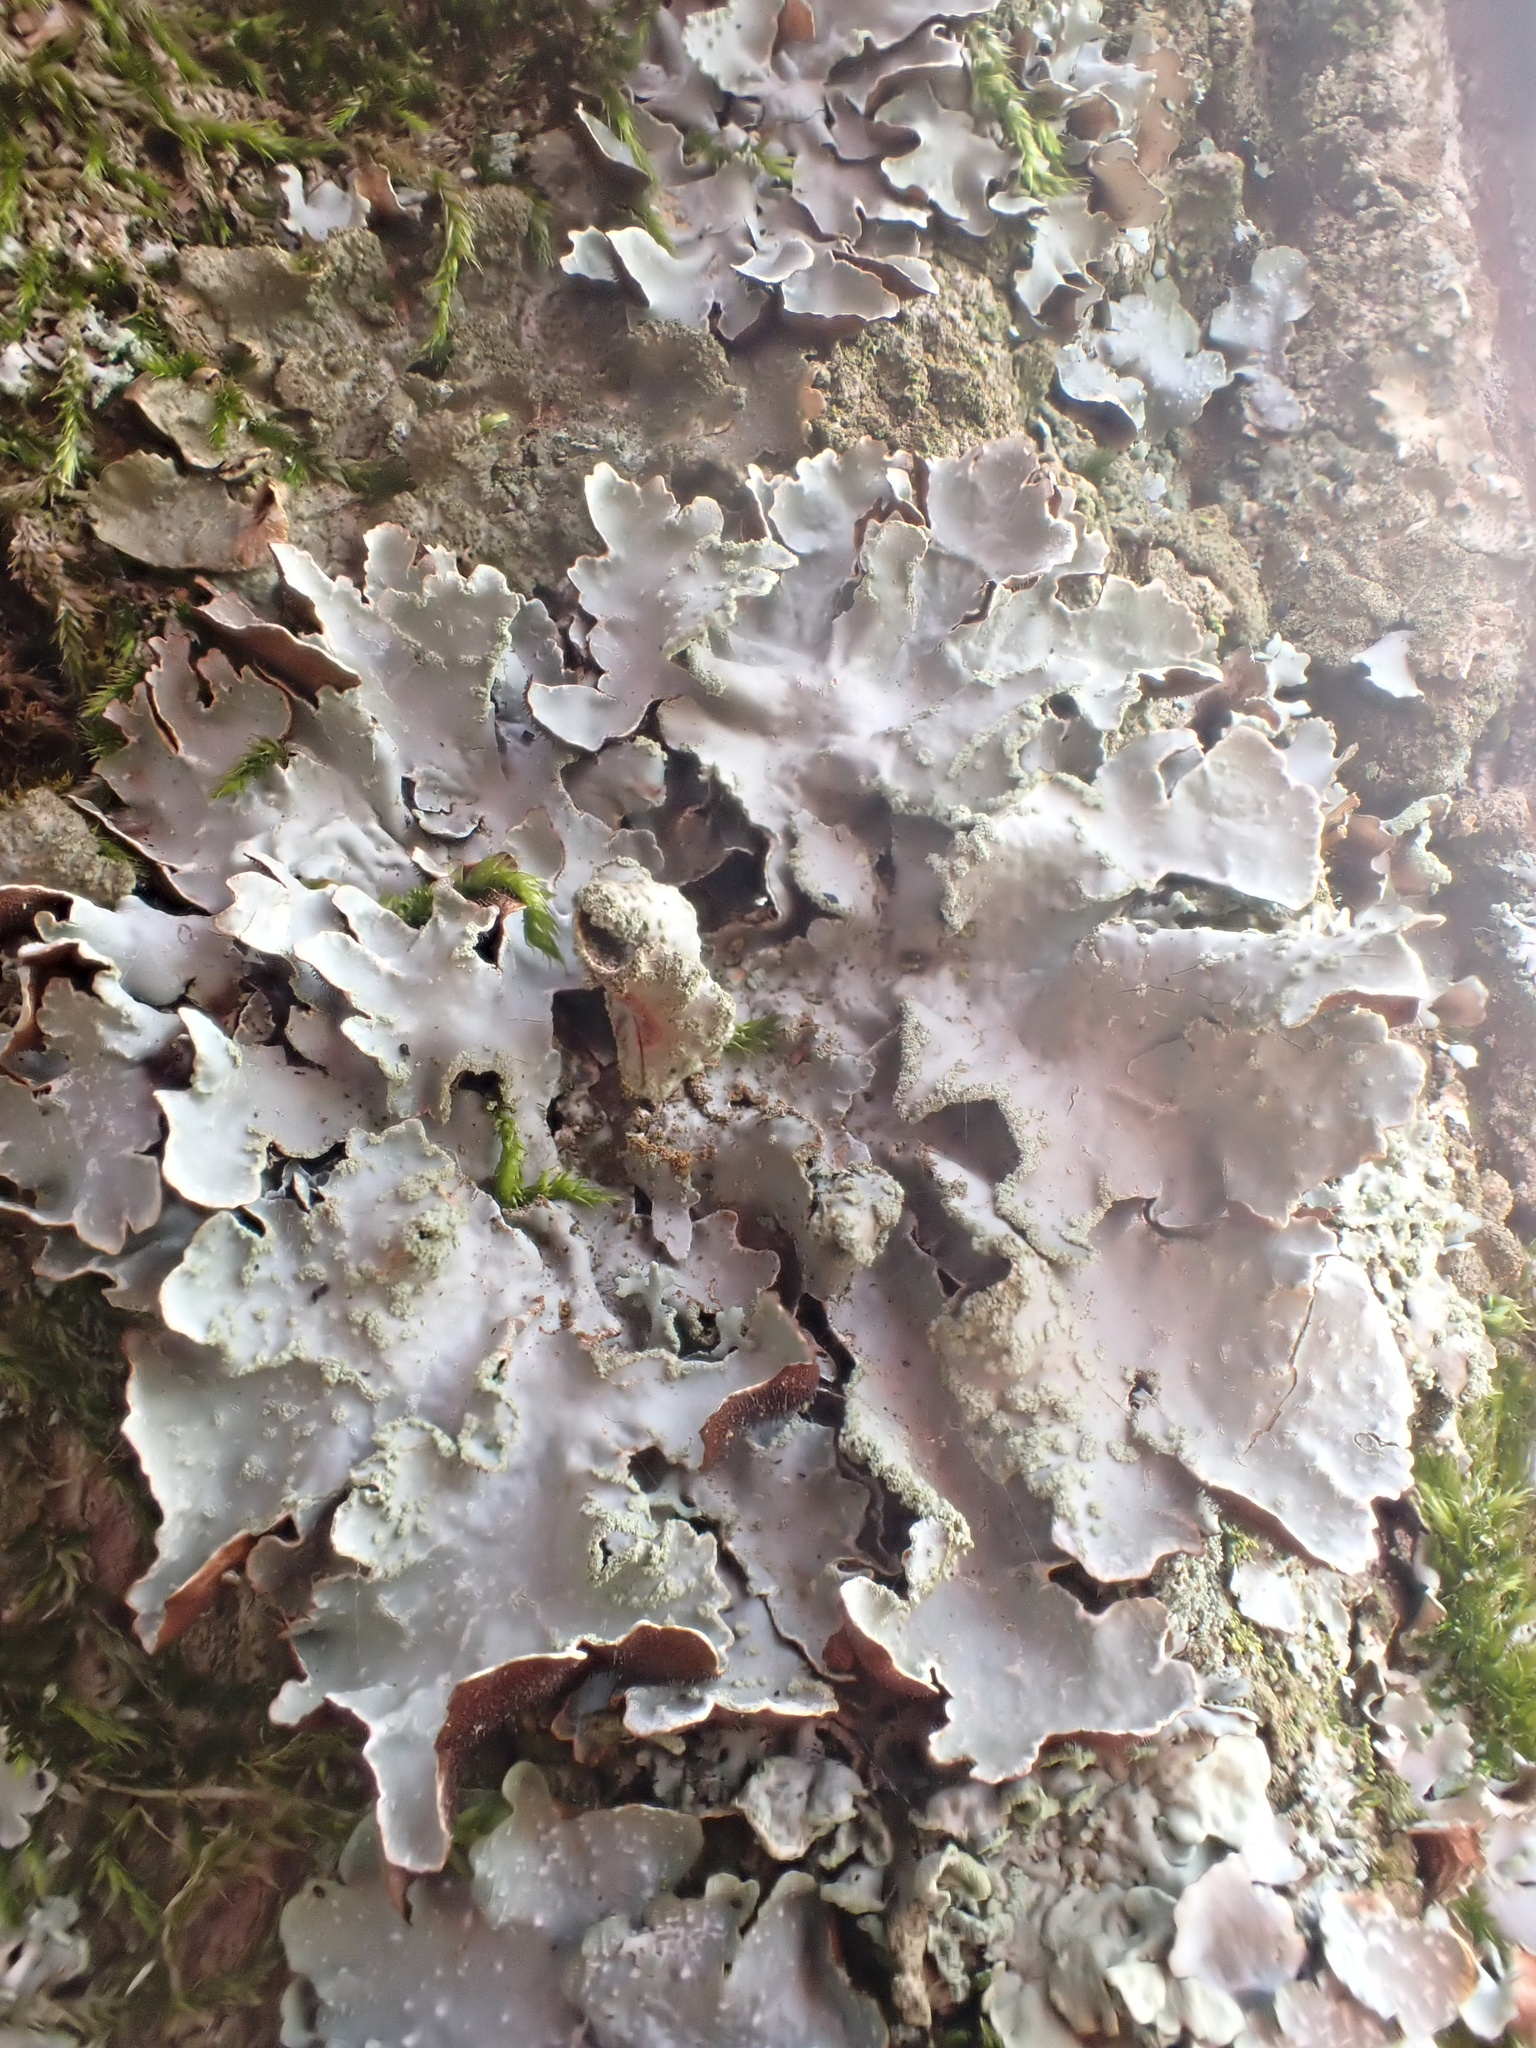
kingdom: Fungi
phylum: Ascomycota
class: Lecanoromycetes
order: Lecanorales
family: Parmeliaceae
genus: Parmelia
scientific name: Parmelia sulcata
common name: Netted shield lichen
